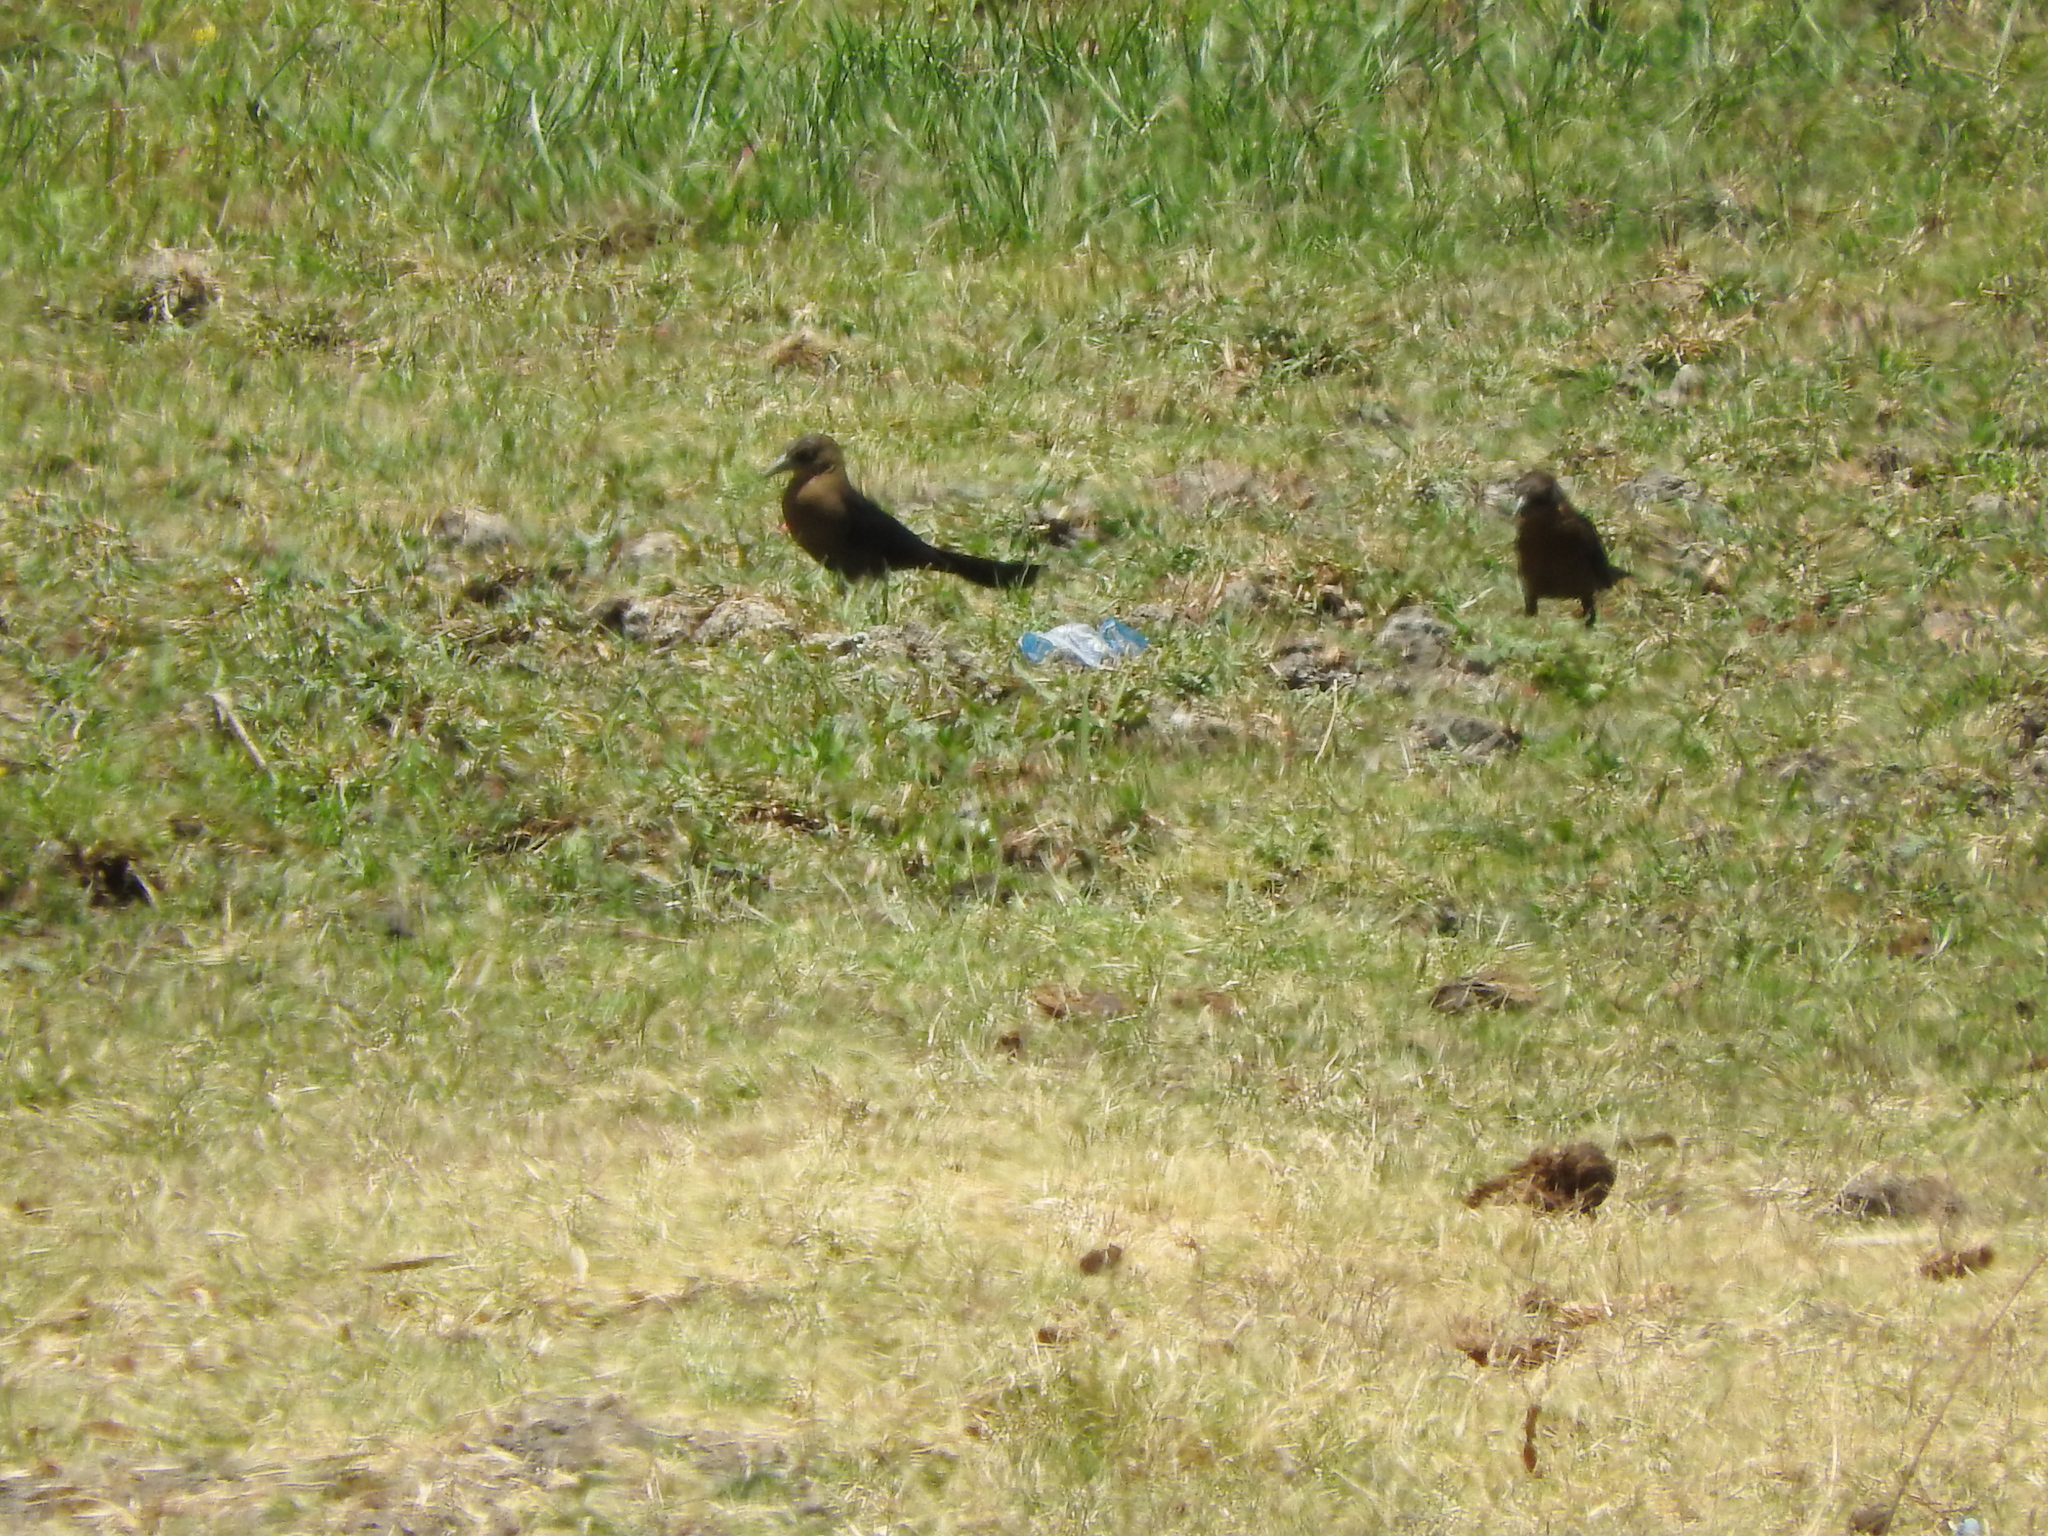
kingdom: Animalia
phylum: Chordata
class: Aves
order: Passeriformes
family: Icteridae
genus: Quiscalus
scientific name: Quiscalus mexicanus
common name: Great-tailed grackle
